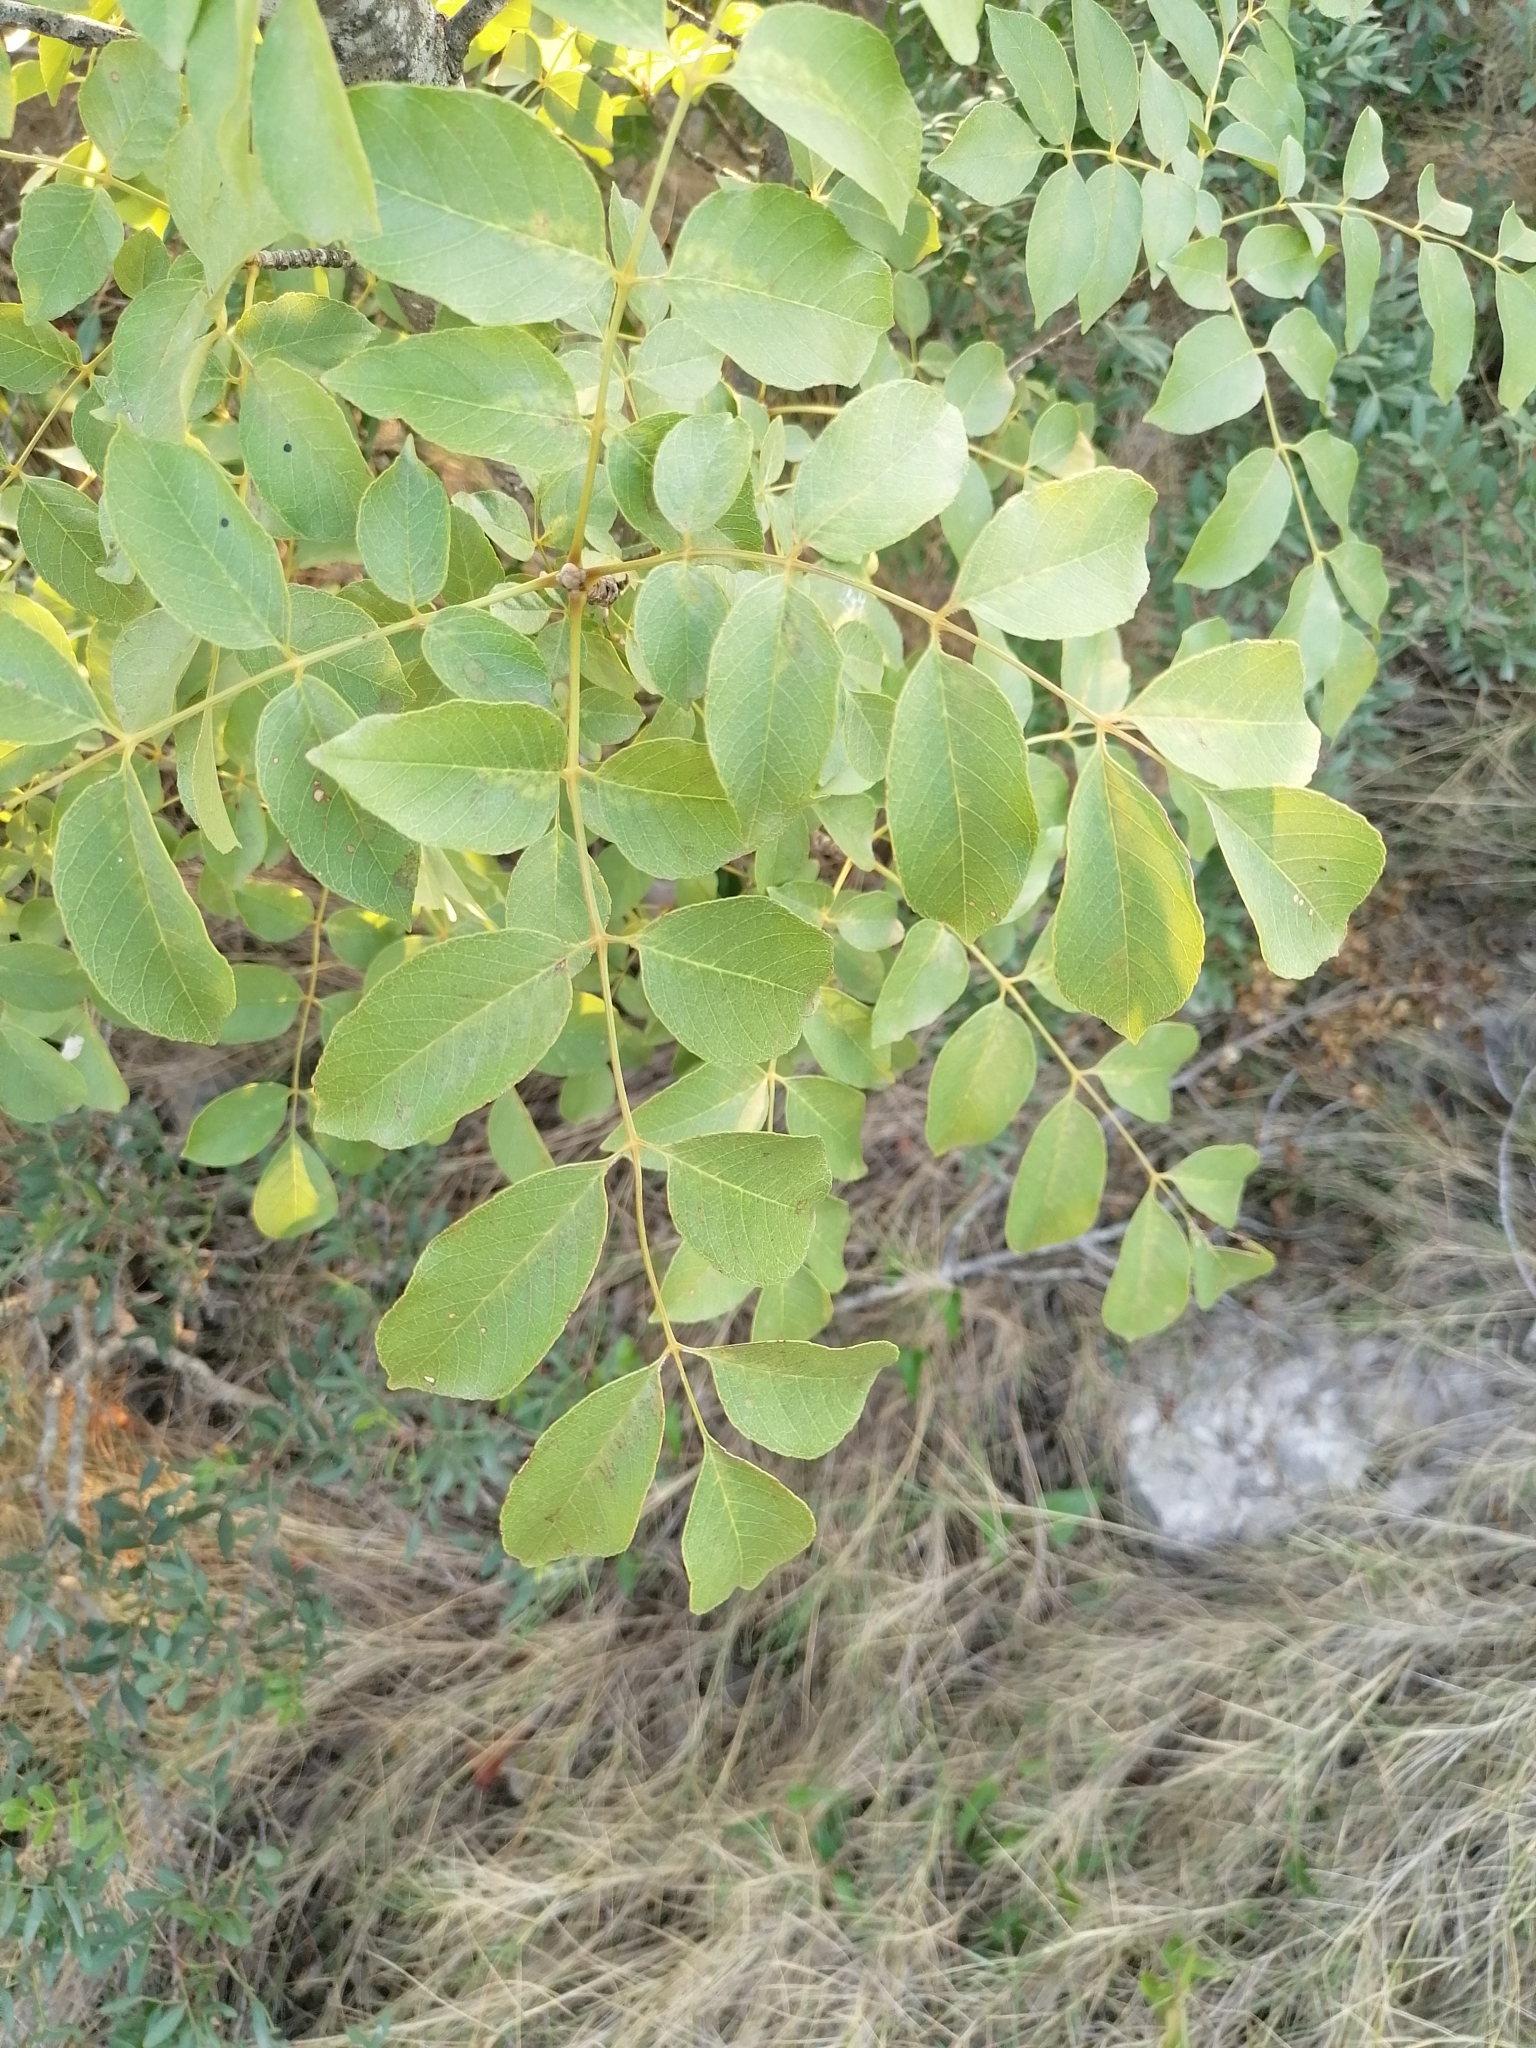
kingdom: Plantae
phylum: Tracheophyta
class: Magnoliopsida
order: Lamiales
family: Oleaceae
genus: Fraxinus
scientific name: Fraxinus ornus
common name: Manna ash
